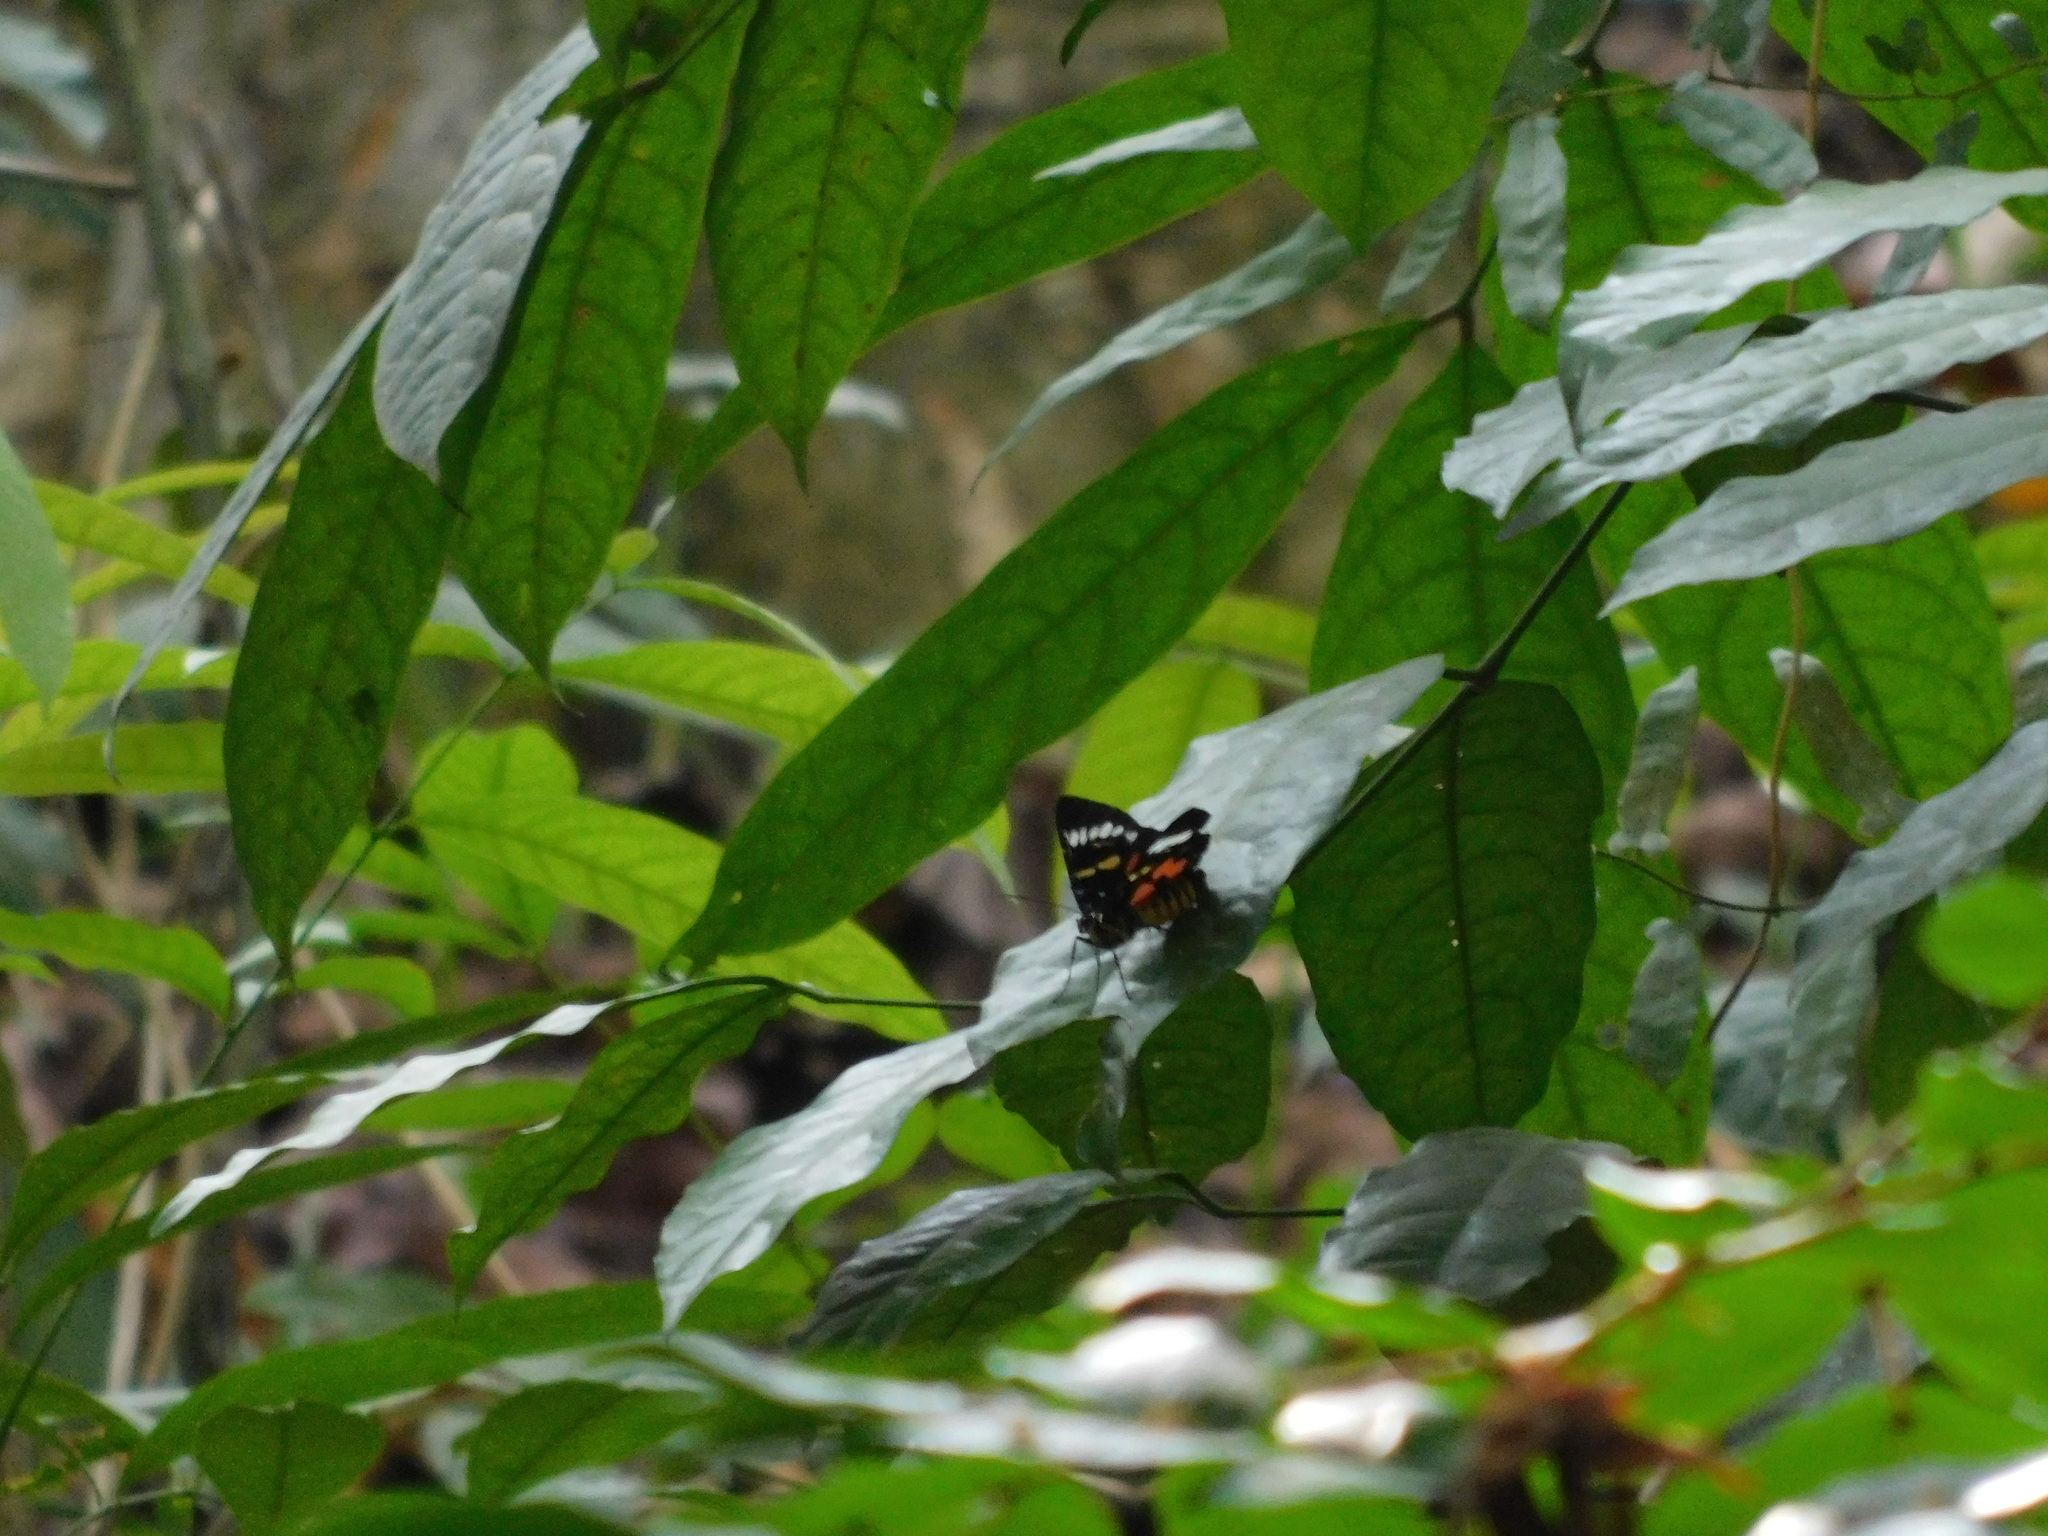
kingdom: Animalia
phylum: Arthropoda
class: Insecta
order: Lepidoptera
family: Noctuidae
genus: Episteme
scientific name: Episteme bisma
